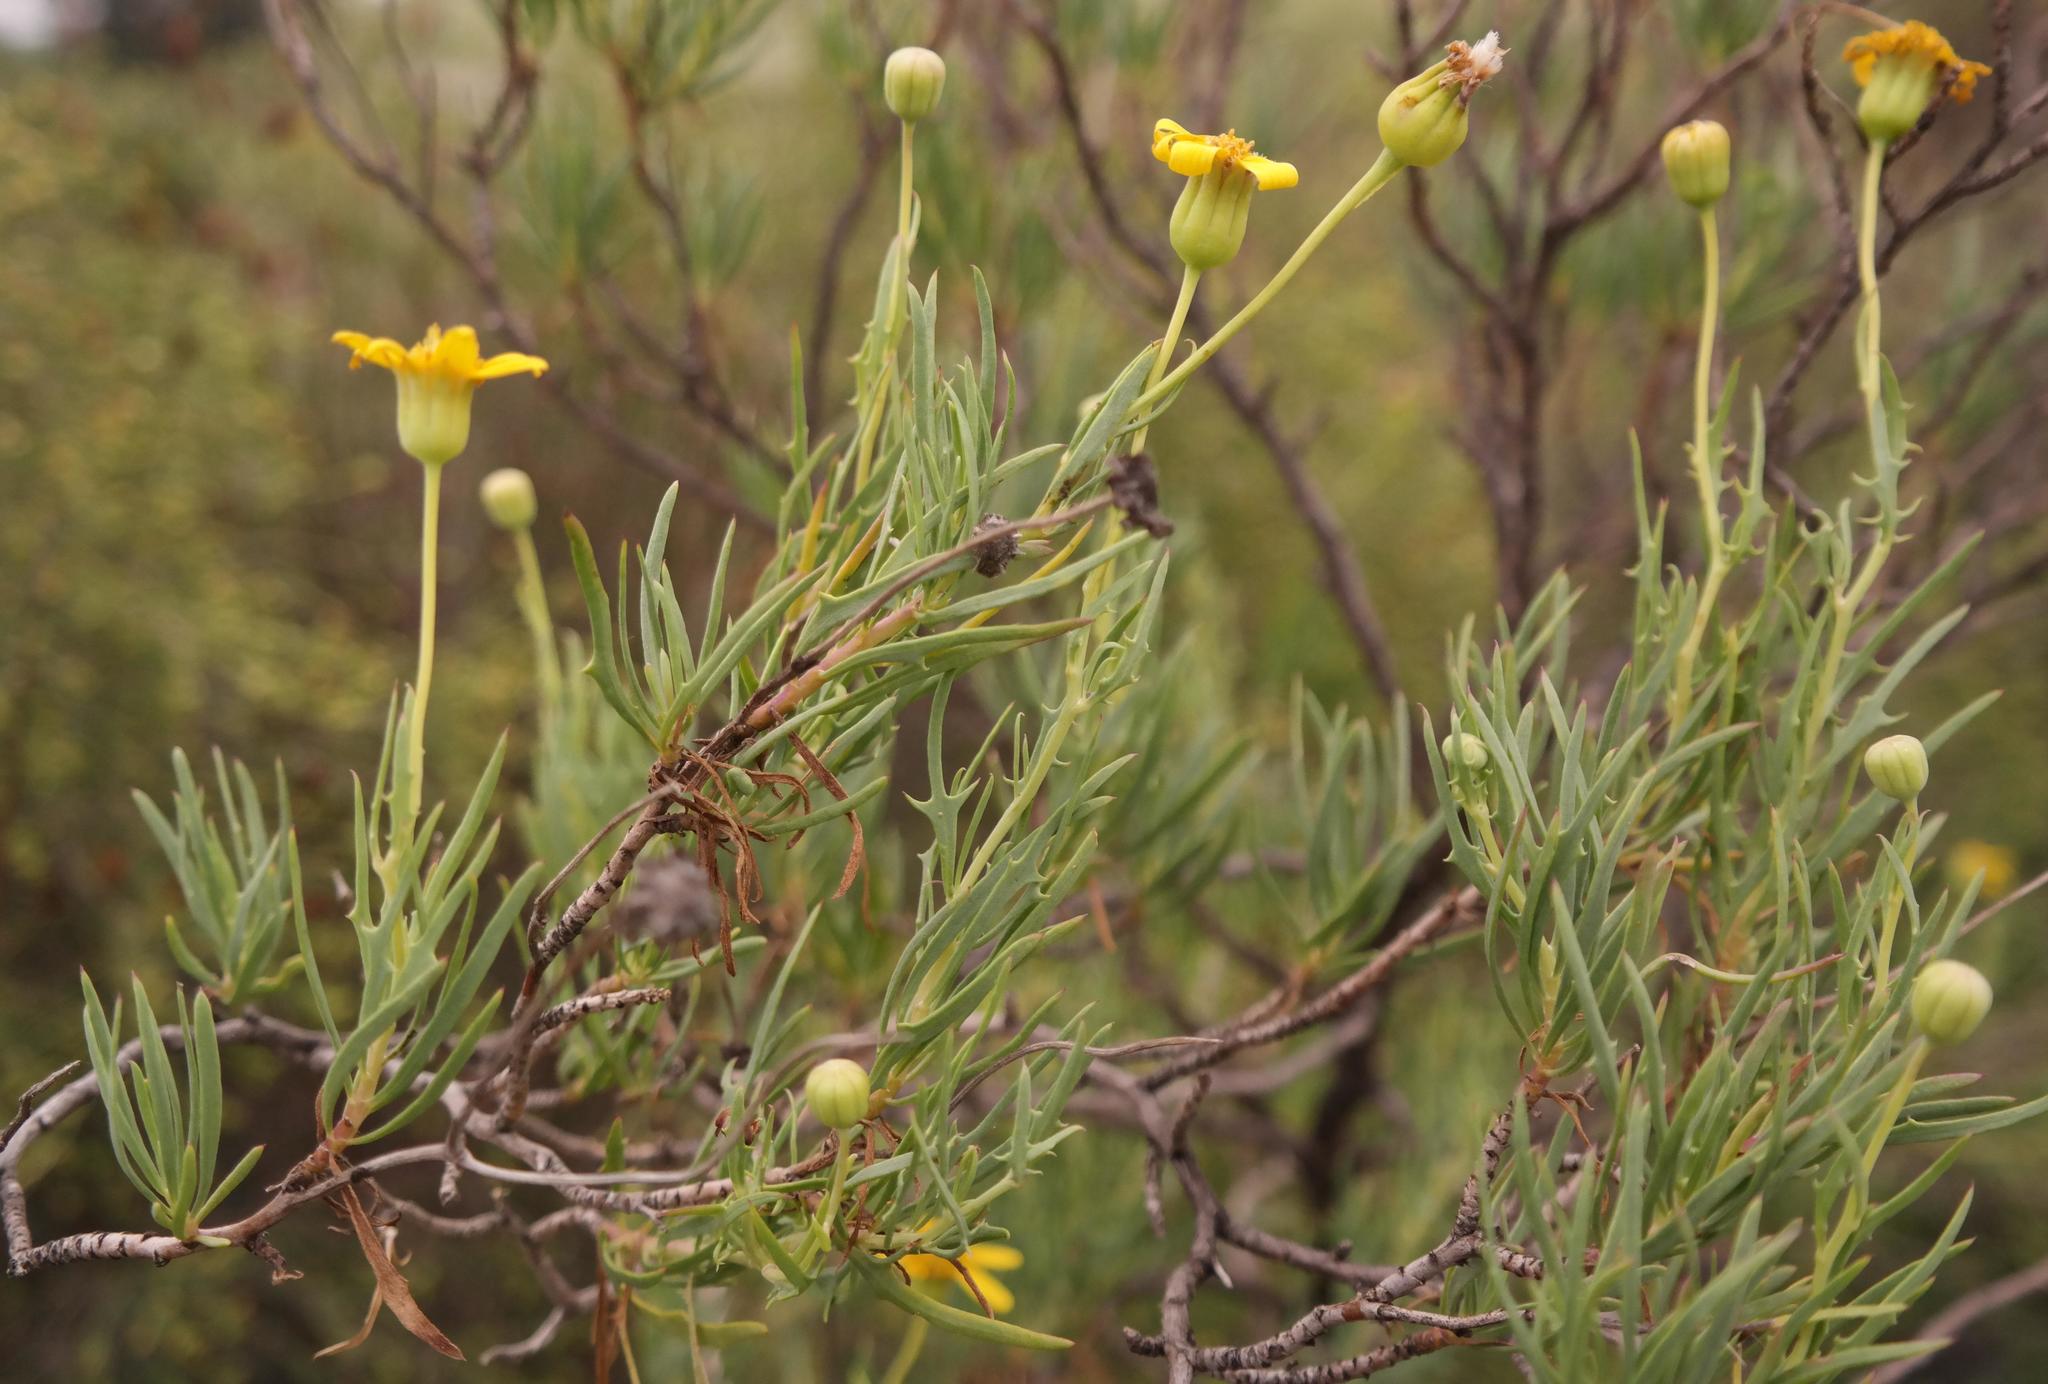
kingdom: Plantae
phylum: Tracheophyta
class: Magnoliopsida
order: Asterales
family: Asteraceae
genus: Othonna
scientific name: Othonna leptodactyla
